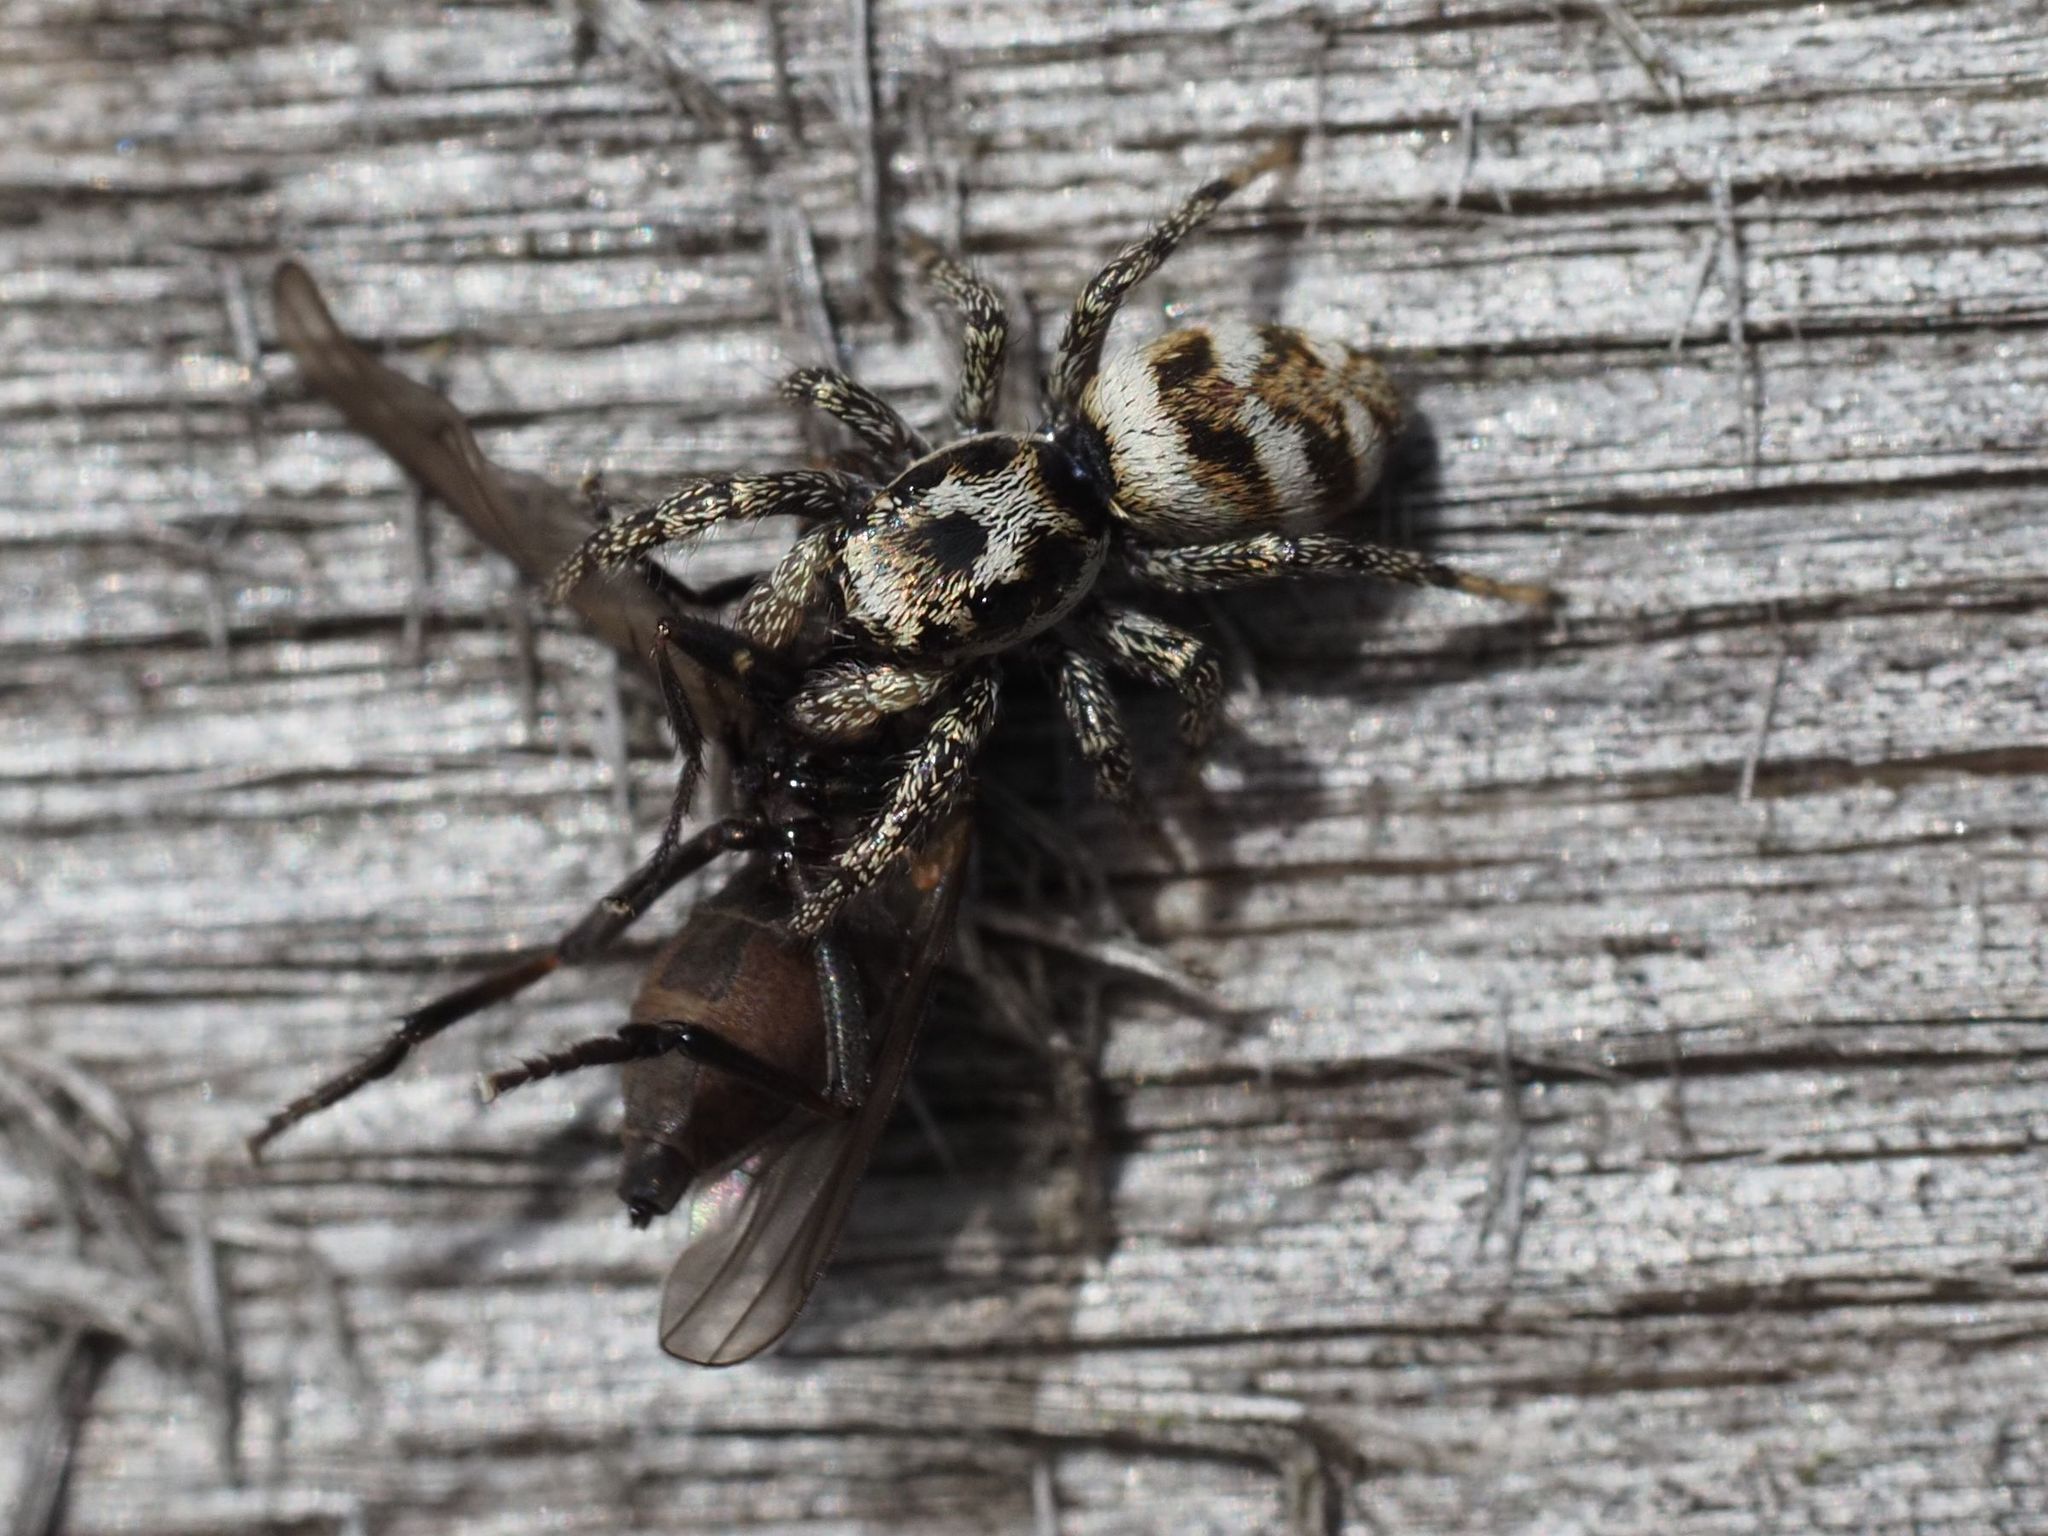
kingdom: Animalia
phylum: Arthropoda
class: Arachnida
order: Araneae
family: Salticidae
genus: Salticus
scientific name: Salticus scenicus
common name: Zebra jumper
